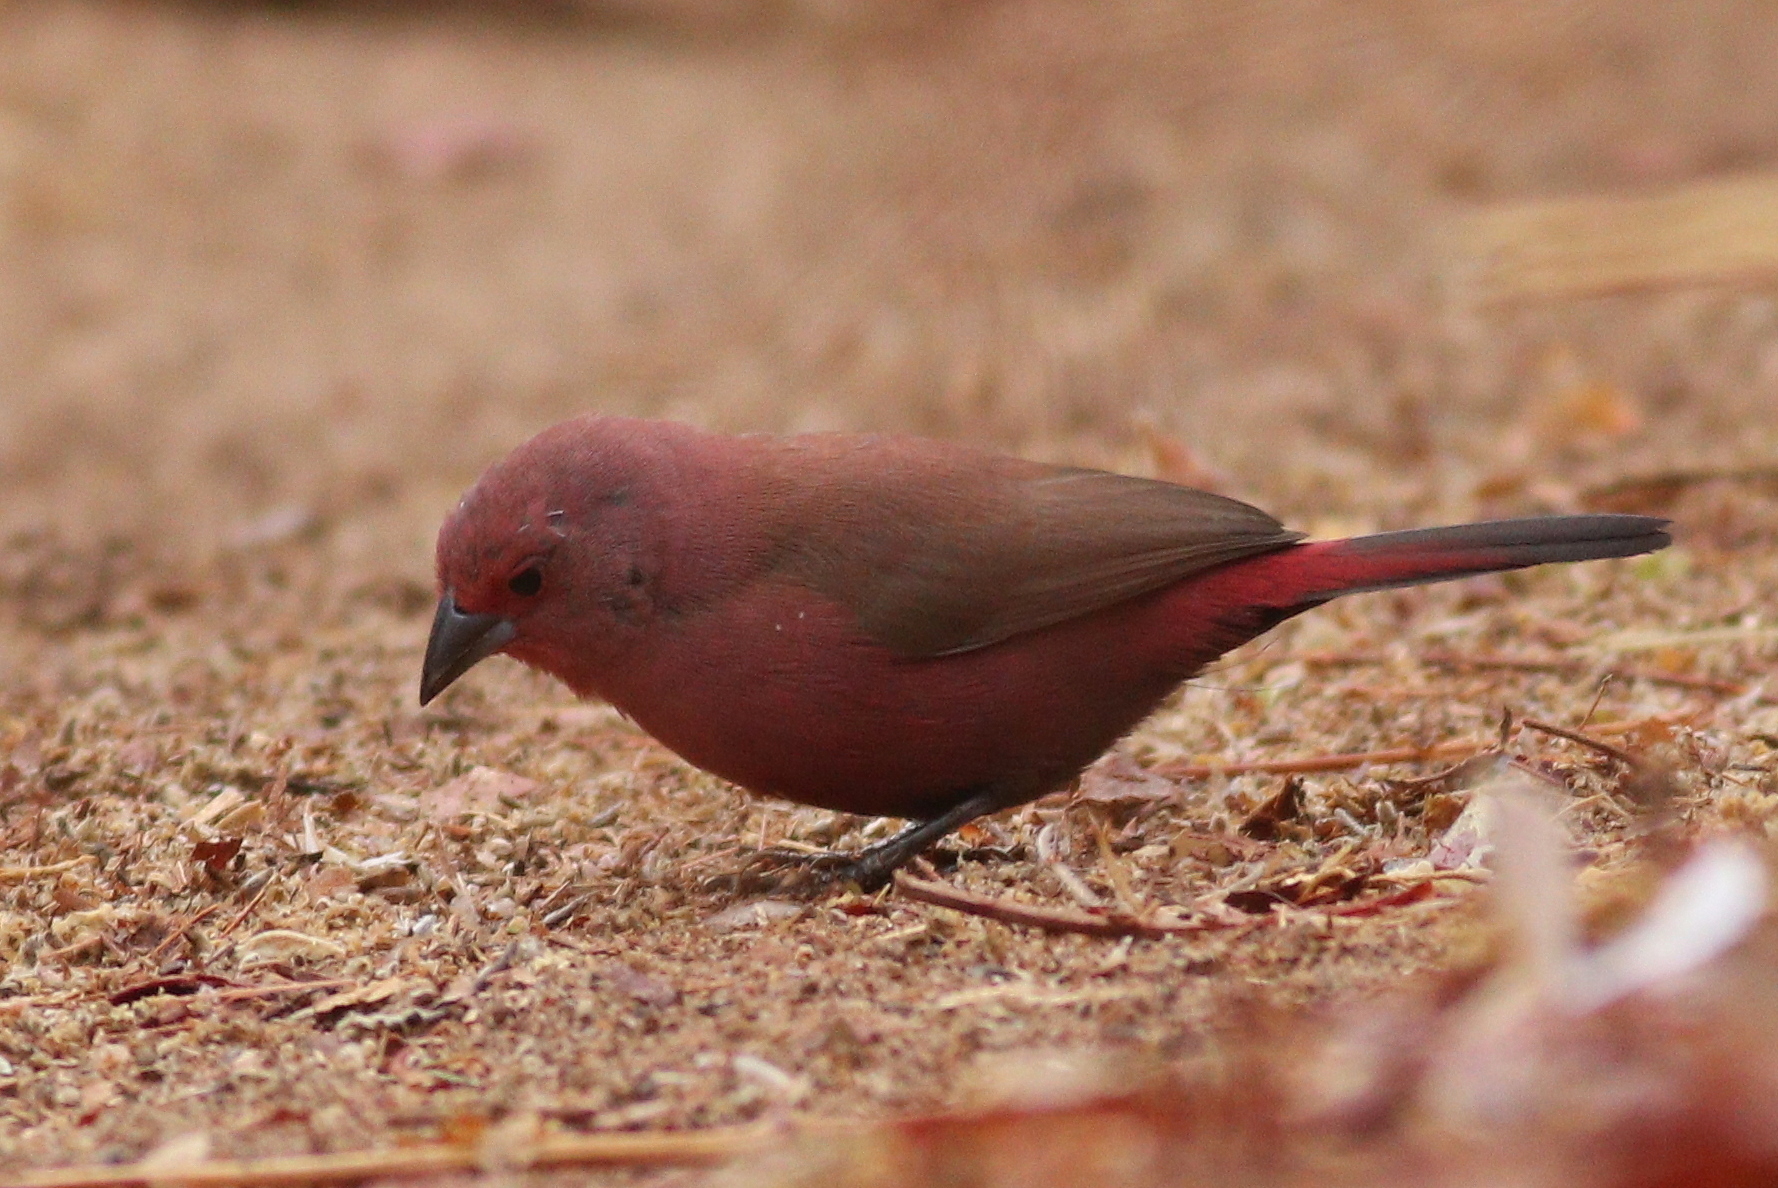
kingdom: Animalia
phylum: Chordata
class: Aves
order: Passeriformes
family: Estrildidae
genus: Lagonosticta
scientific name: Lagonosticta rhodopareia
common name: Jameson's firefinch
